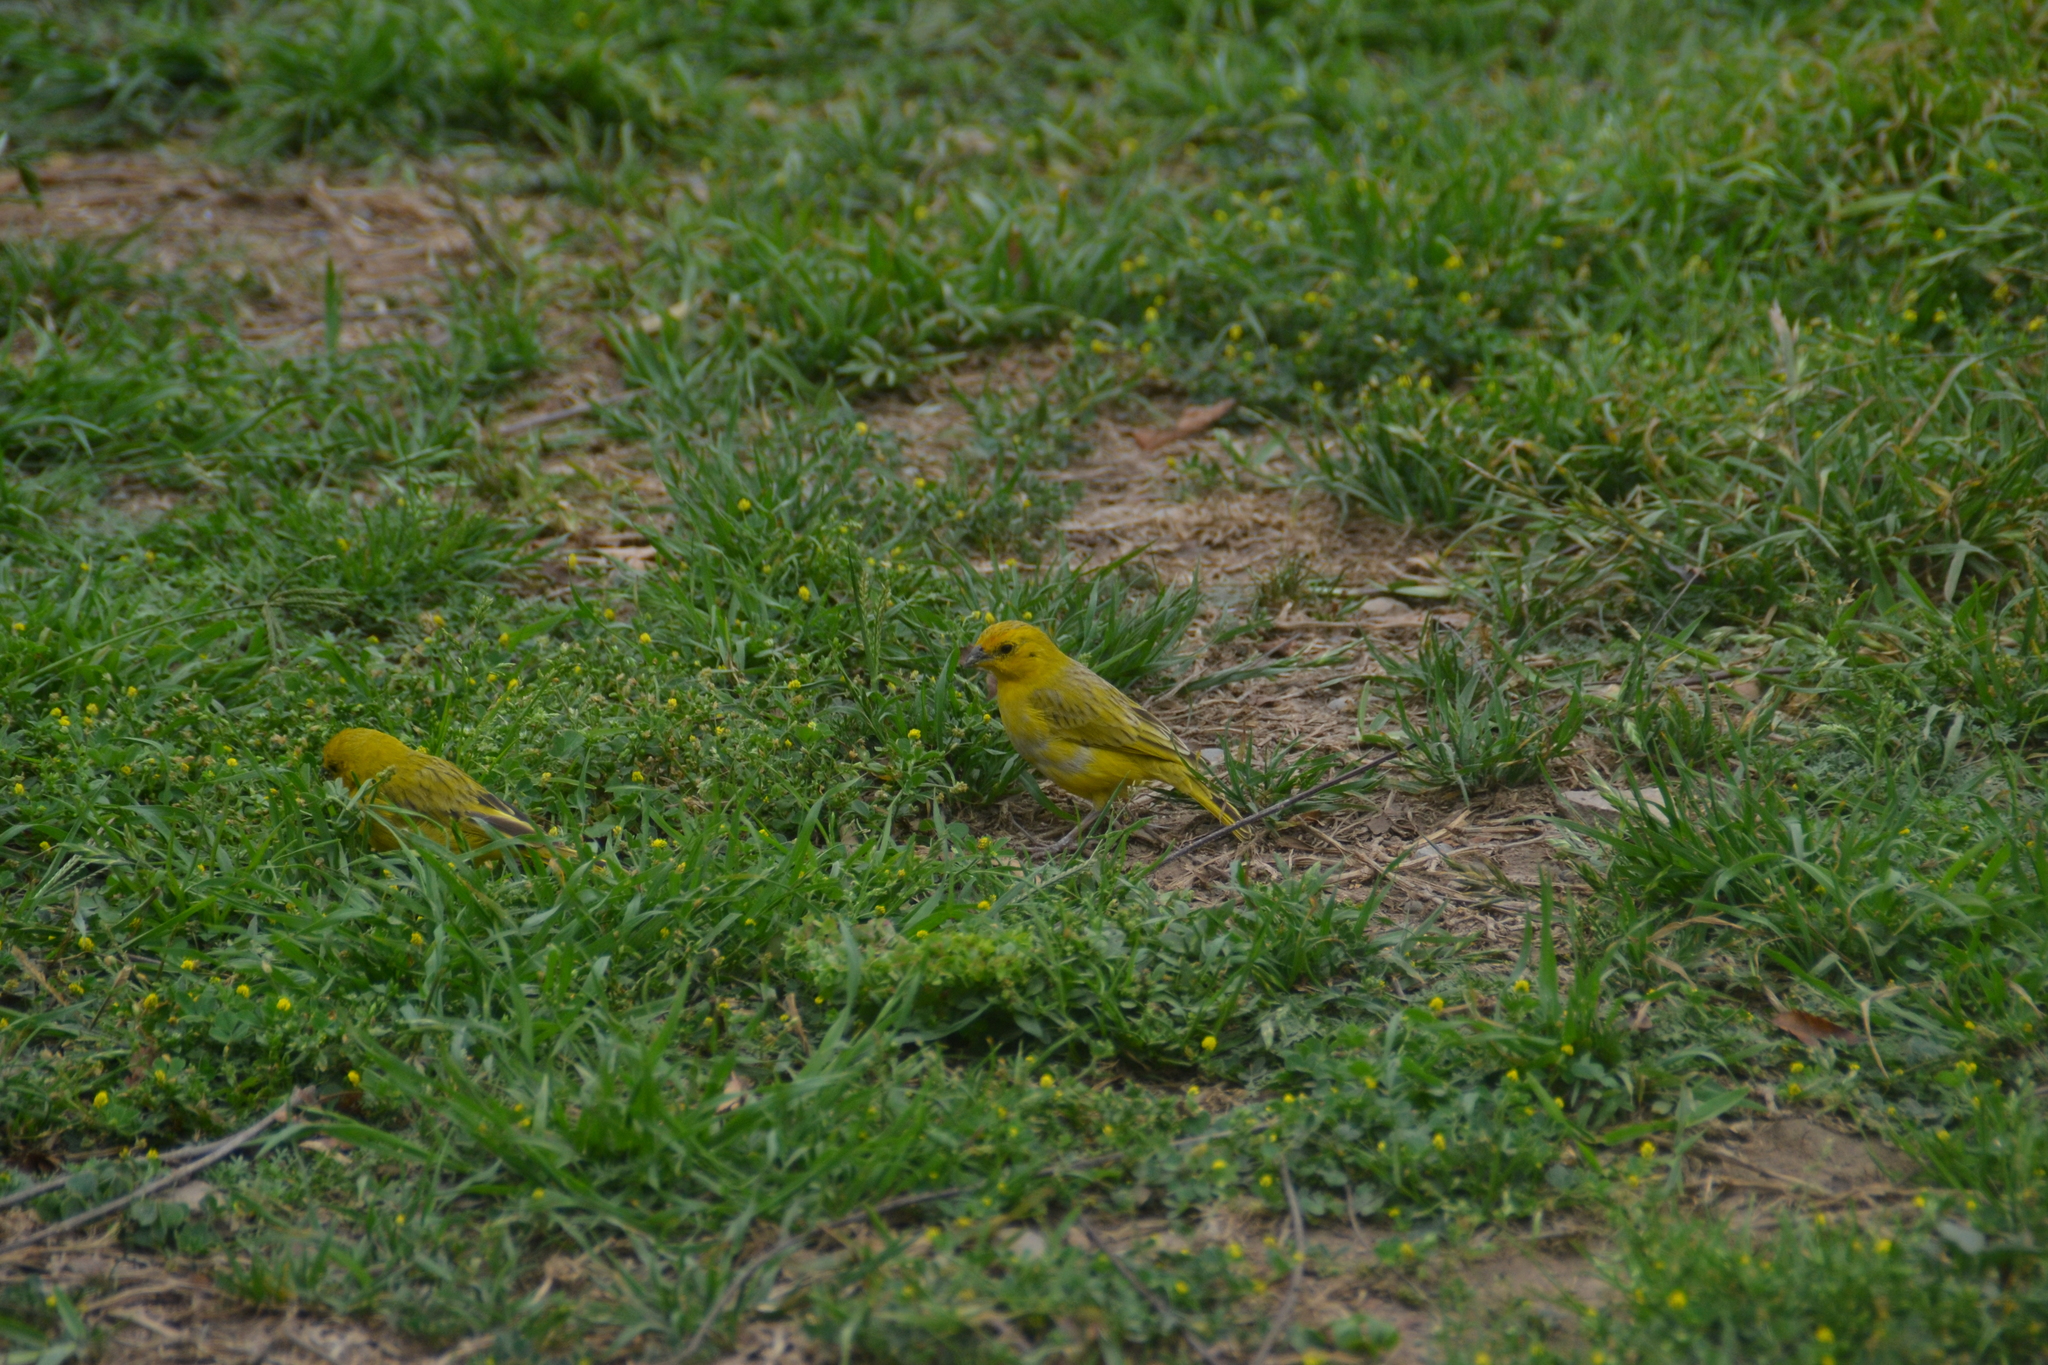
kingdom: Animalia
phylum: Chordata
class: Aves
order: Passeriformes
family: Thraupidae
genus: Sicalis
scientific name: Sicalis flaveola
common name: Saffron finch
